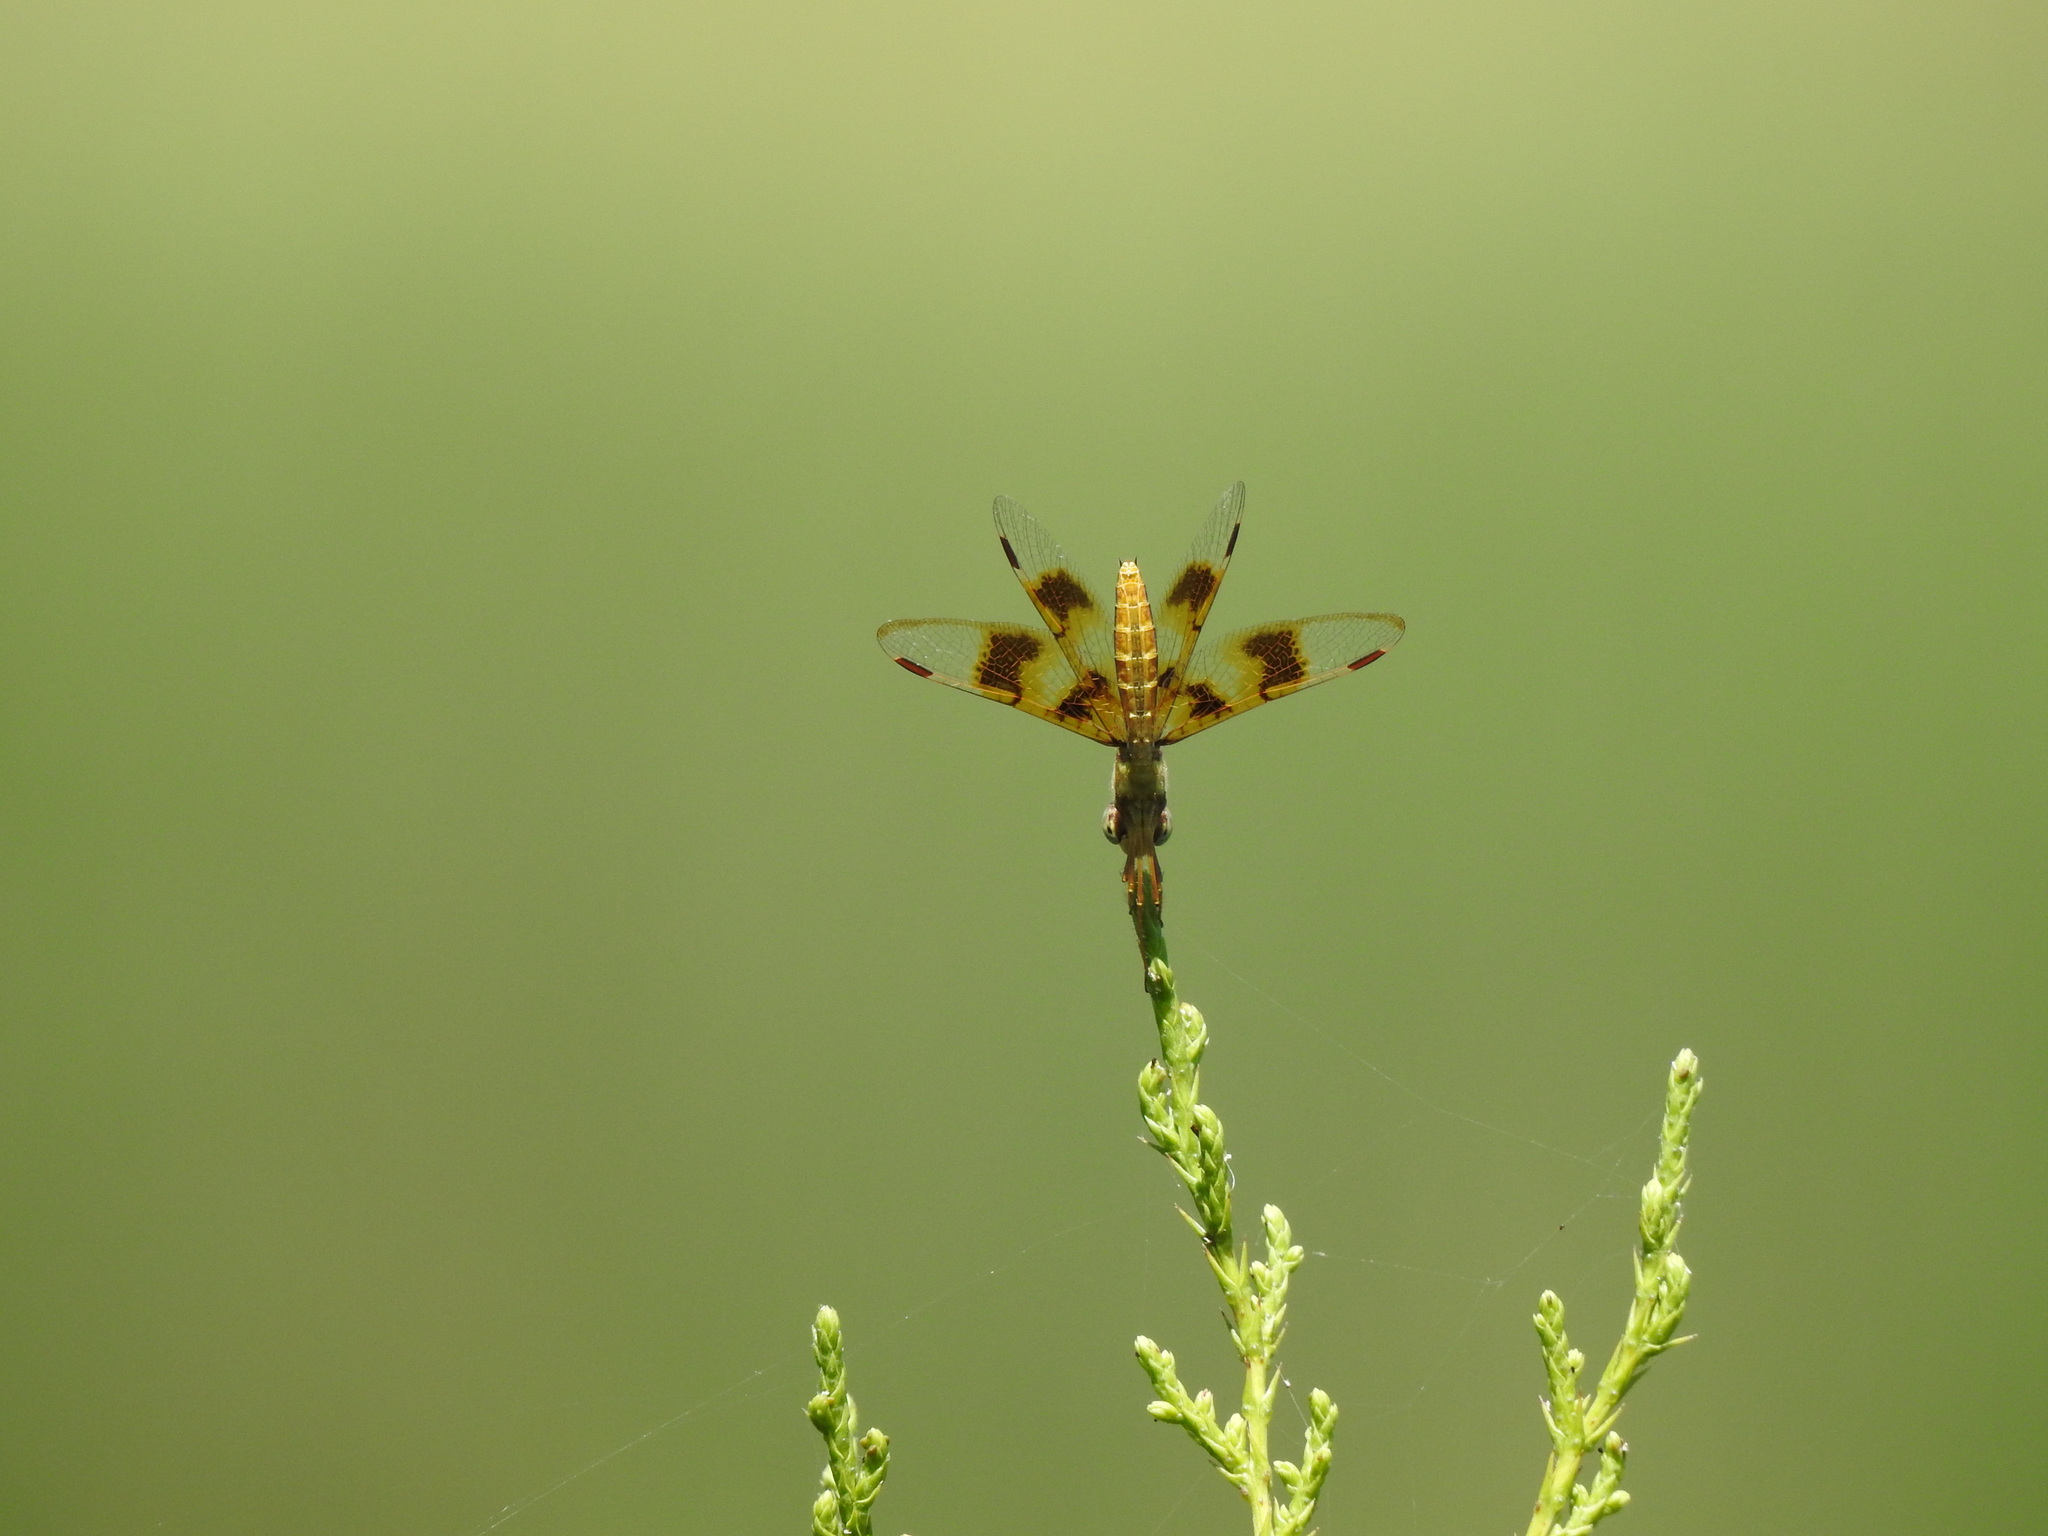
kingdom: Animalia
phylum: Arthropoda
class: Insecta
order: Odonata
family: Libellulidae
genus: Perithemis
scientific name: Perithemis tenera
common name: Eastern amberwing
